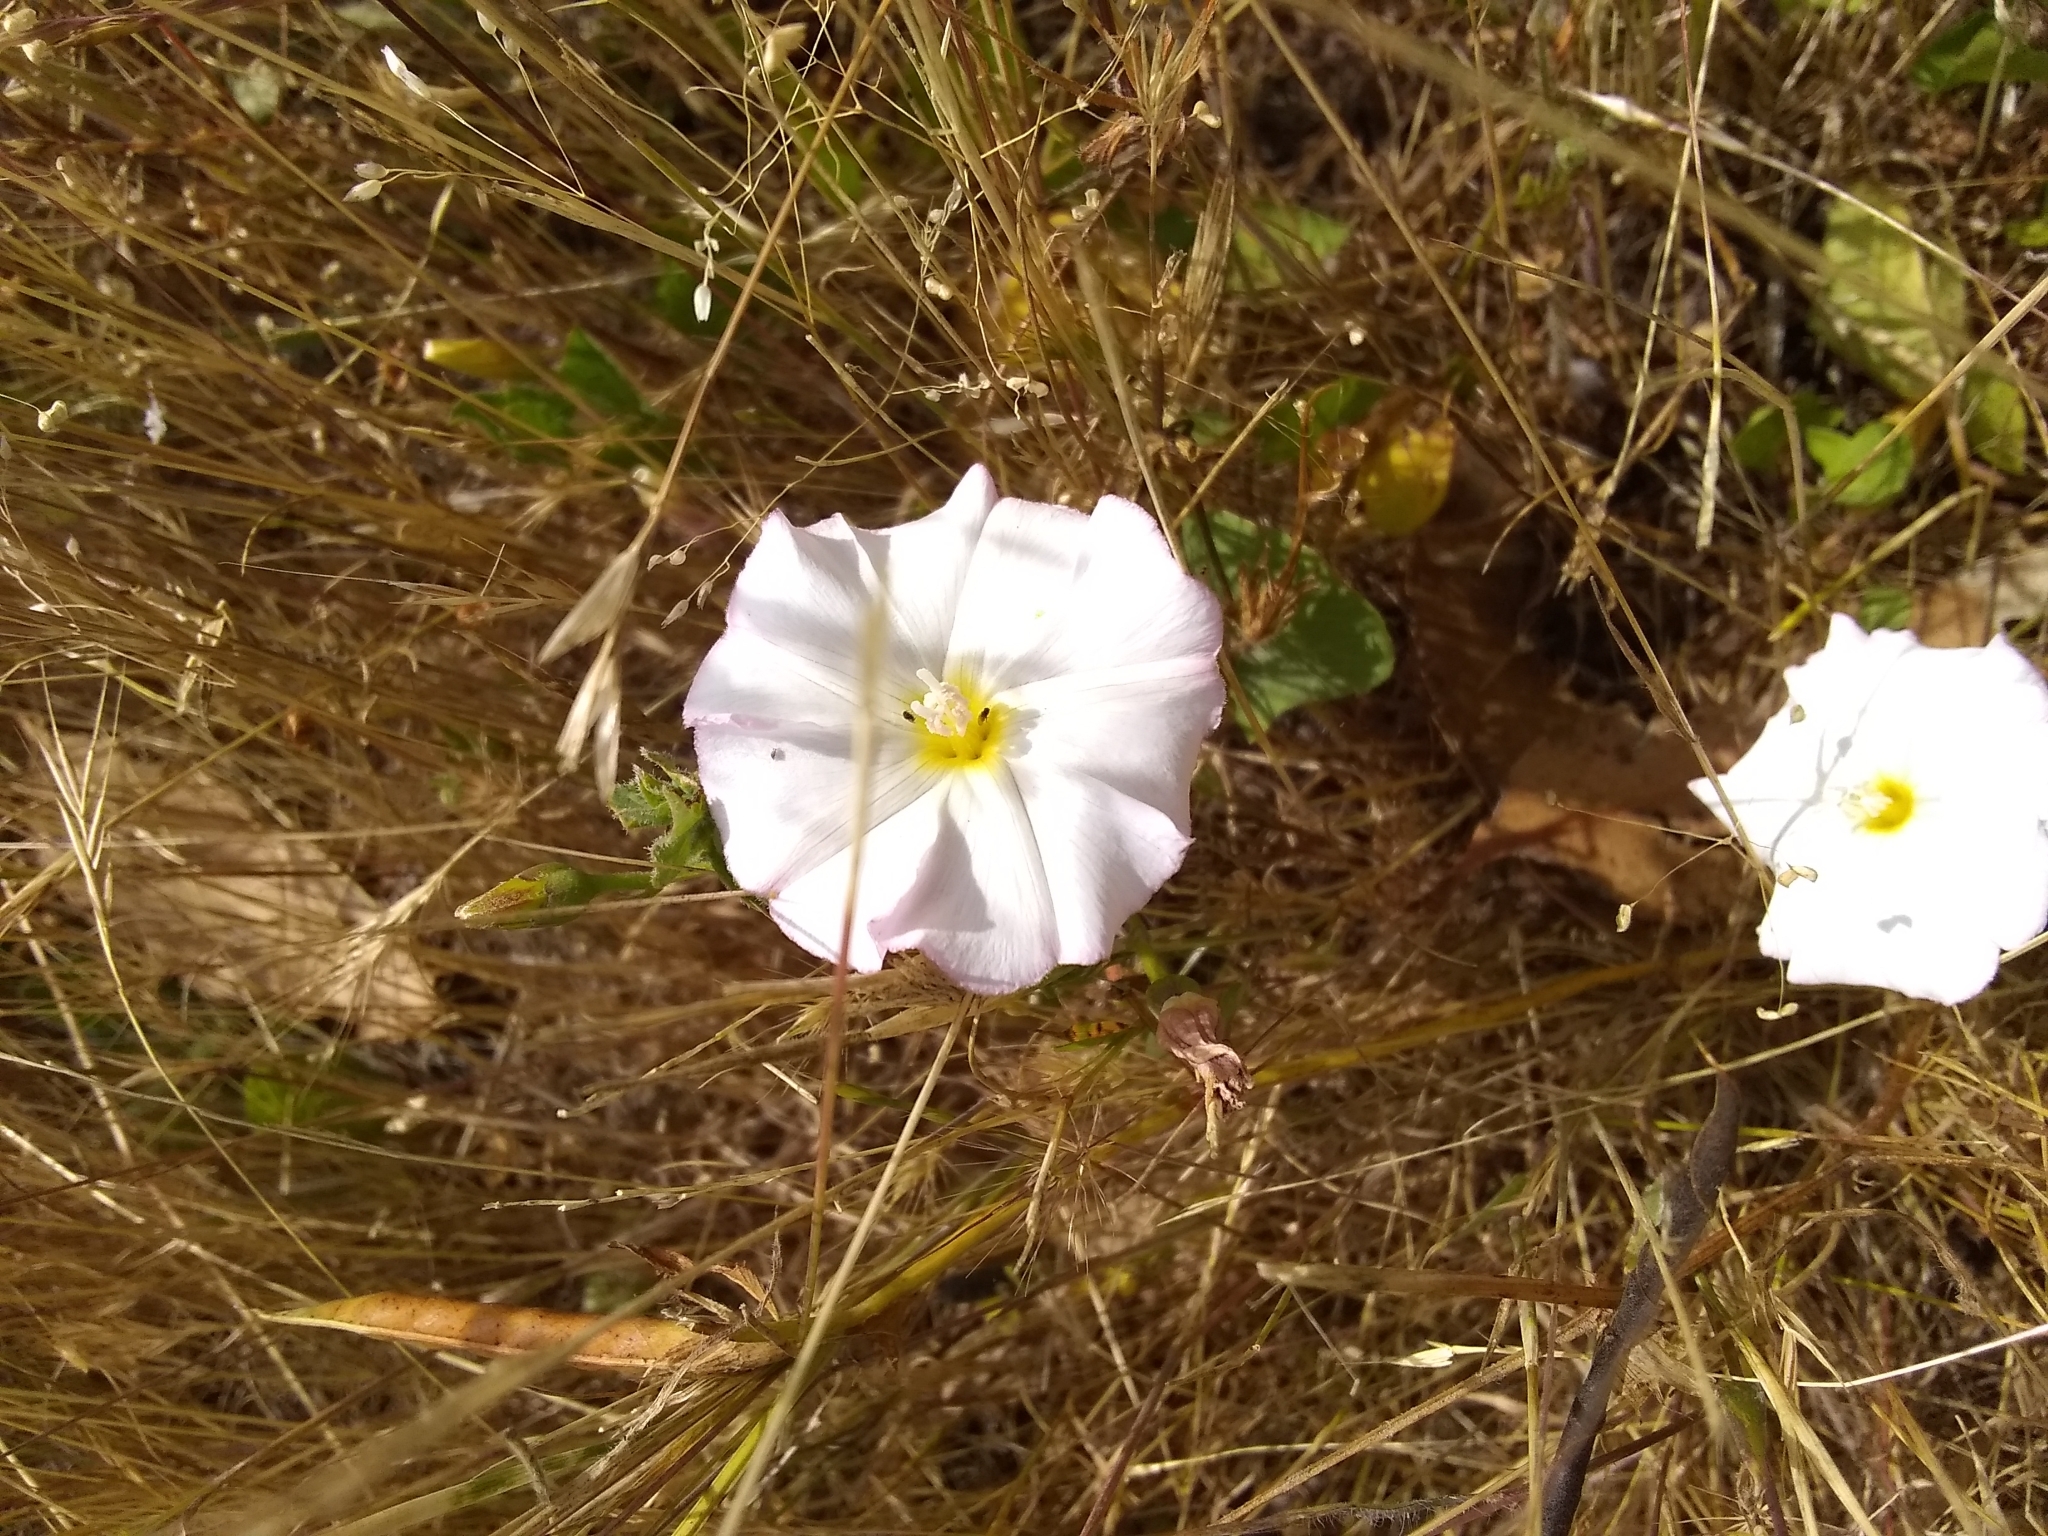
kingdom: Plantae
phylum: Tracheophyta
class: Magnoliopsida
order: Solanales
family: Convolvulaceae
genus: Convolvulus
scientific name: Convolvulus arvensis
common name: Field bindweed
